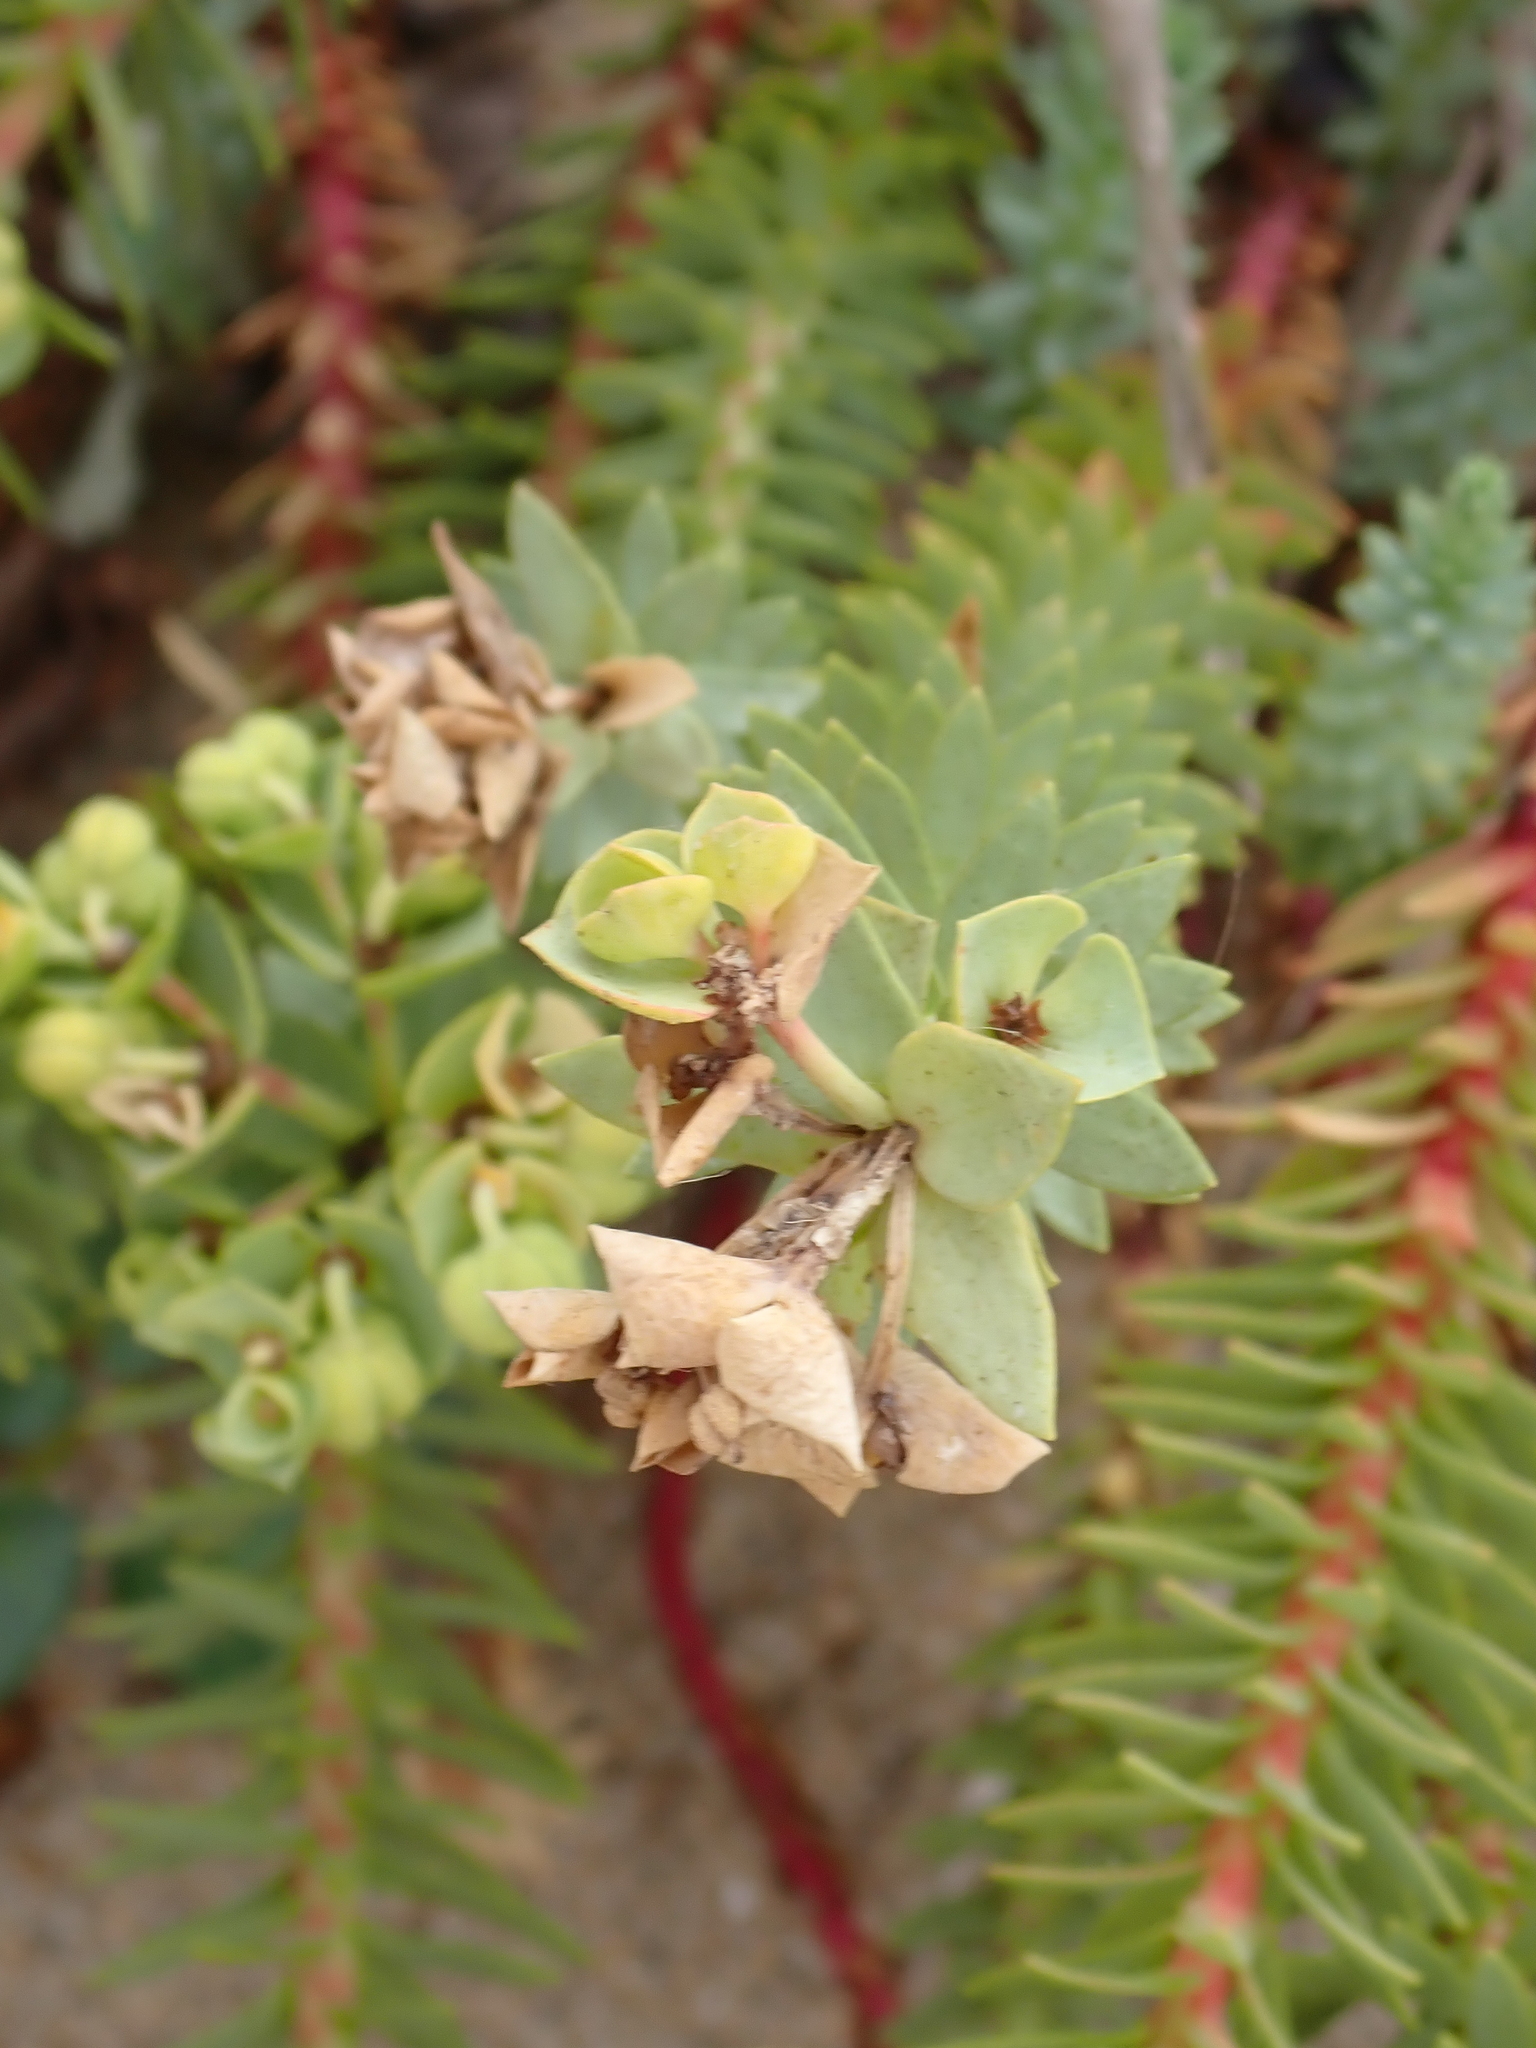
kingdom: Plantae
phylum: Tracheophyta
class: Magnoliopsida
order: Malpighiales
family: Euphorbiaceae
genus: Euphorbia
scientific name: Euphorbia paralias
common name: Sea spurge
